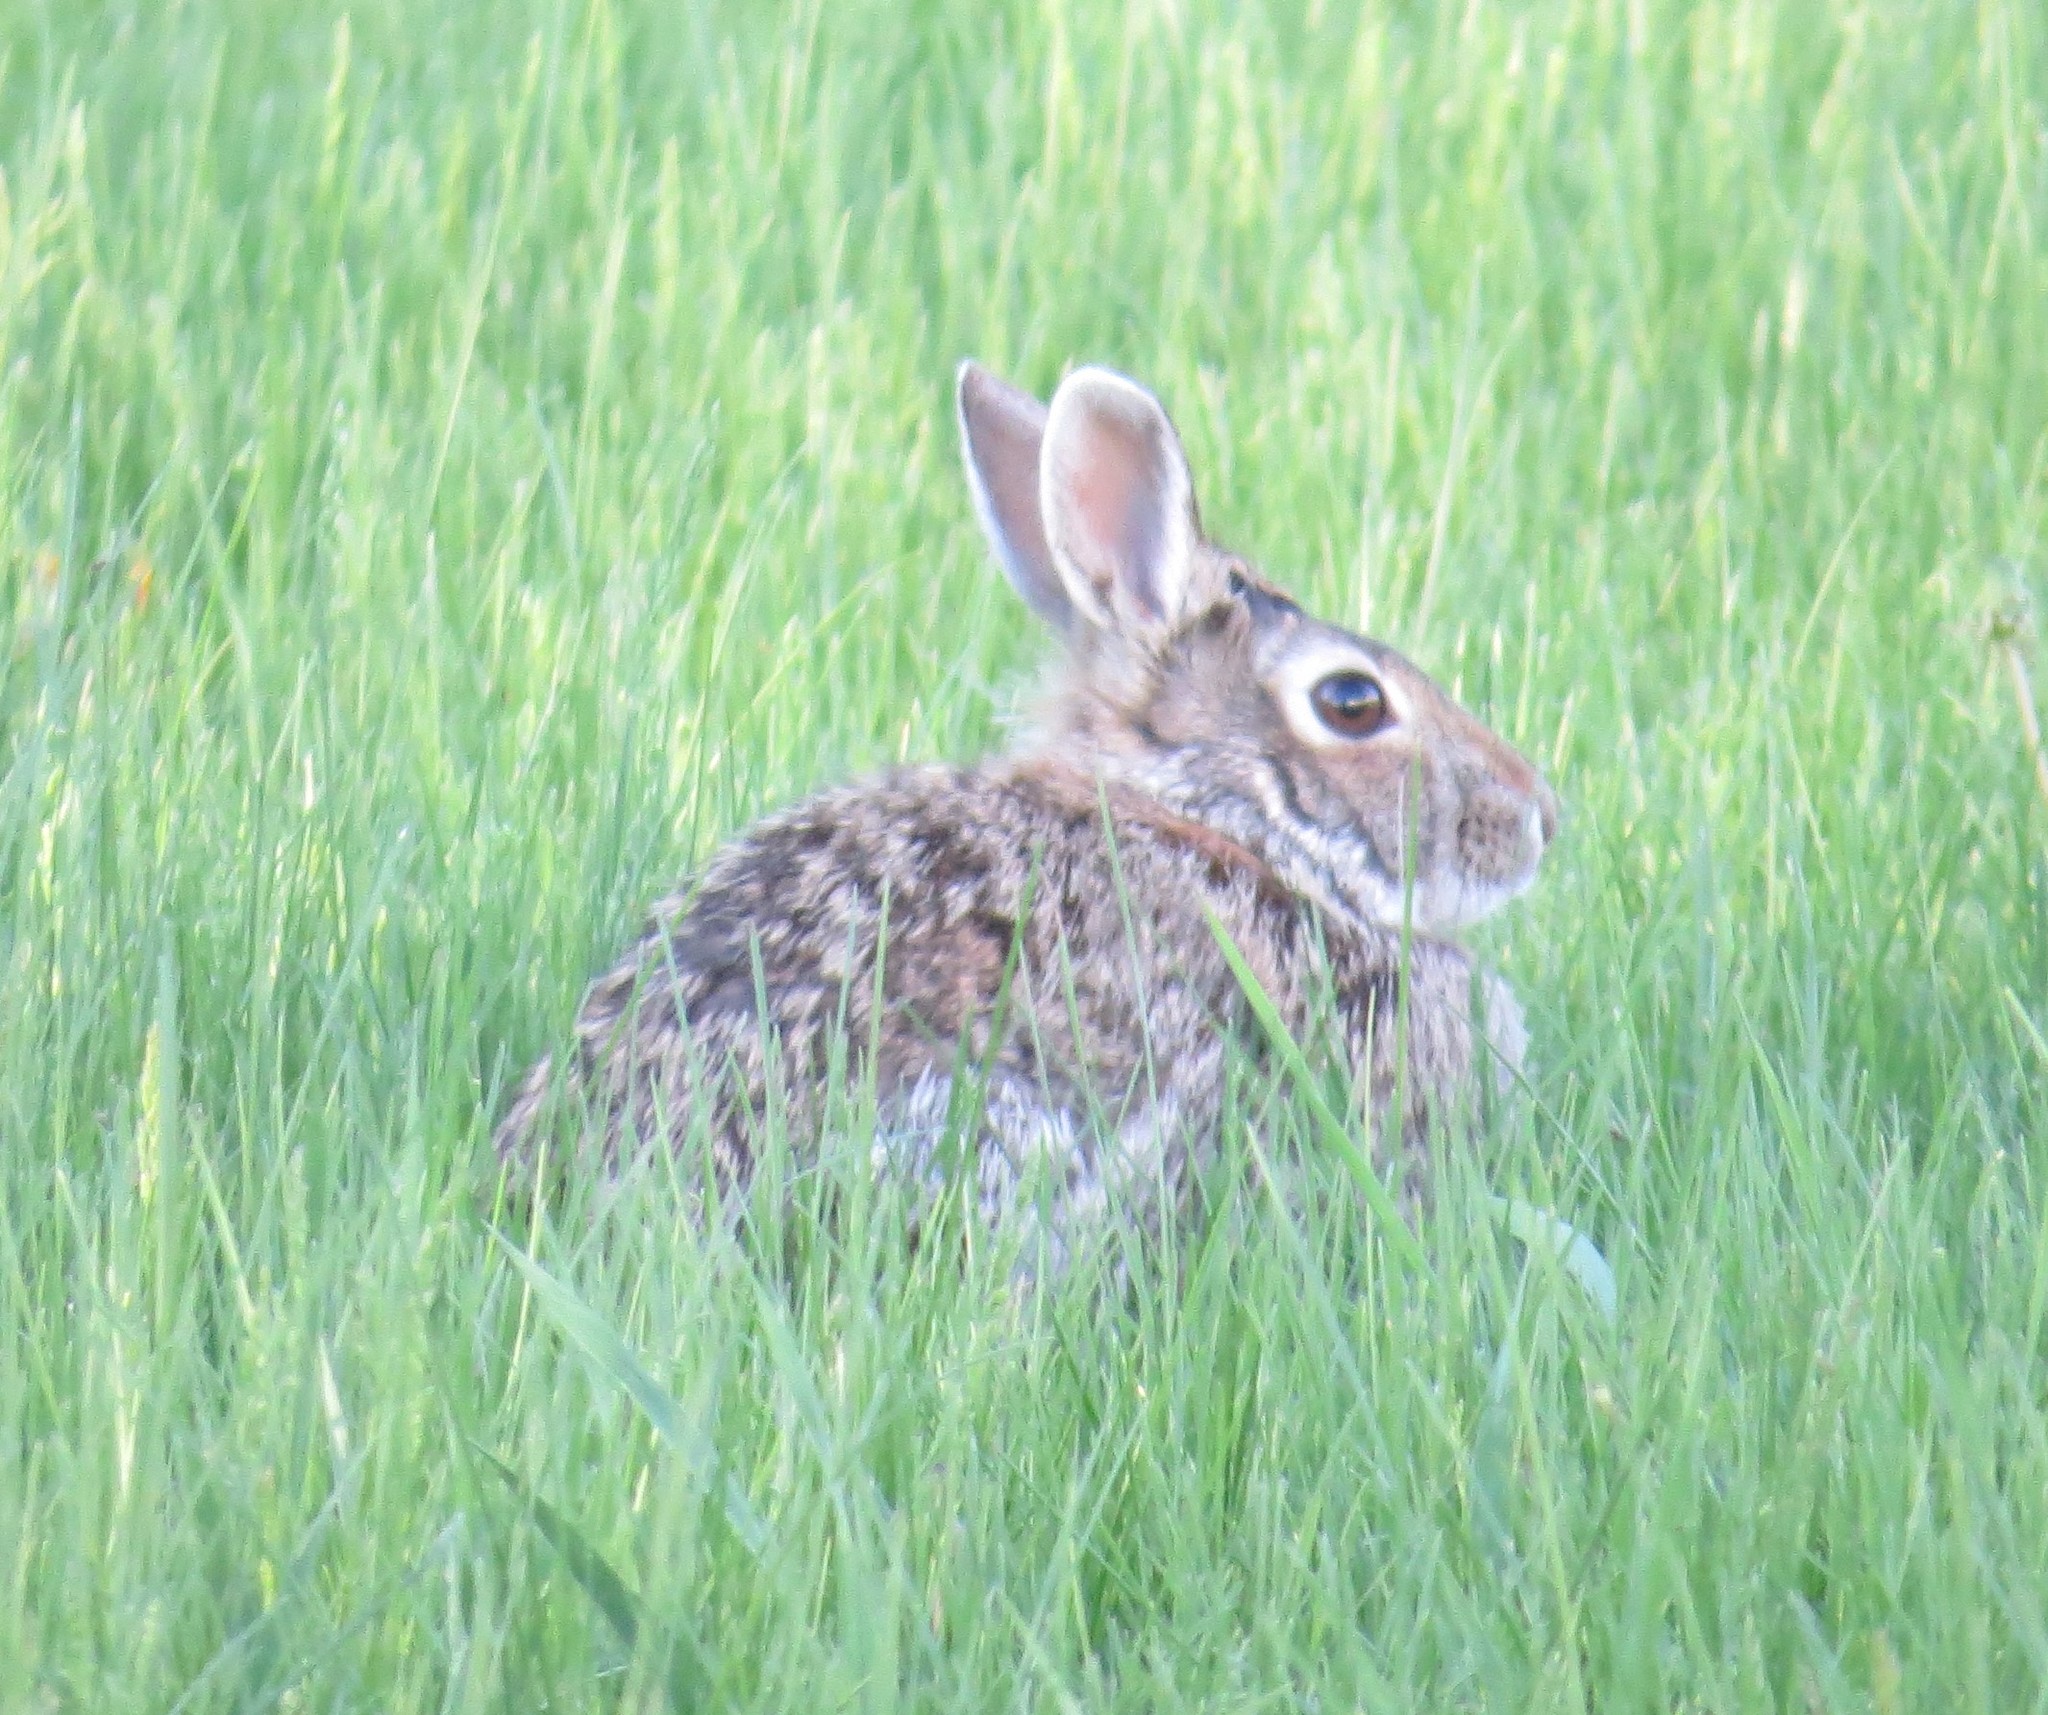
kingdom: Animalia
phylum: Chordata
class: Mammalia
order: Lagomorpha
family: Leporidae
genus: Sylvilagus
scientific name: Sylvilagus floridanus
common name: Eastern cottontail
